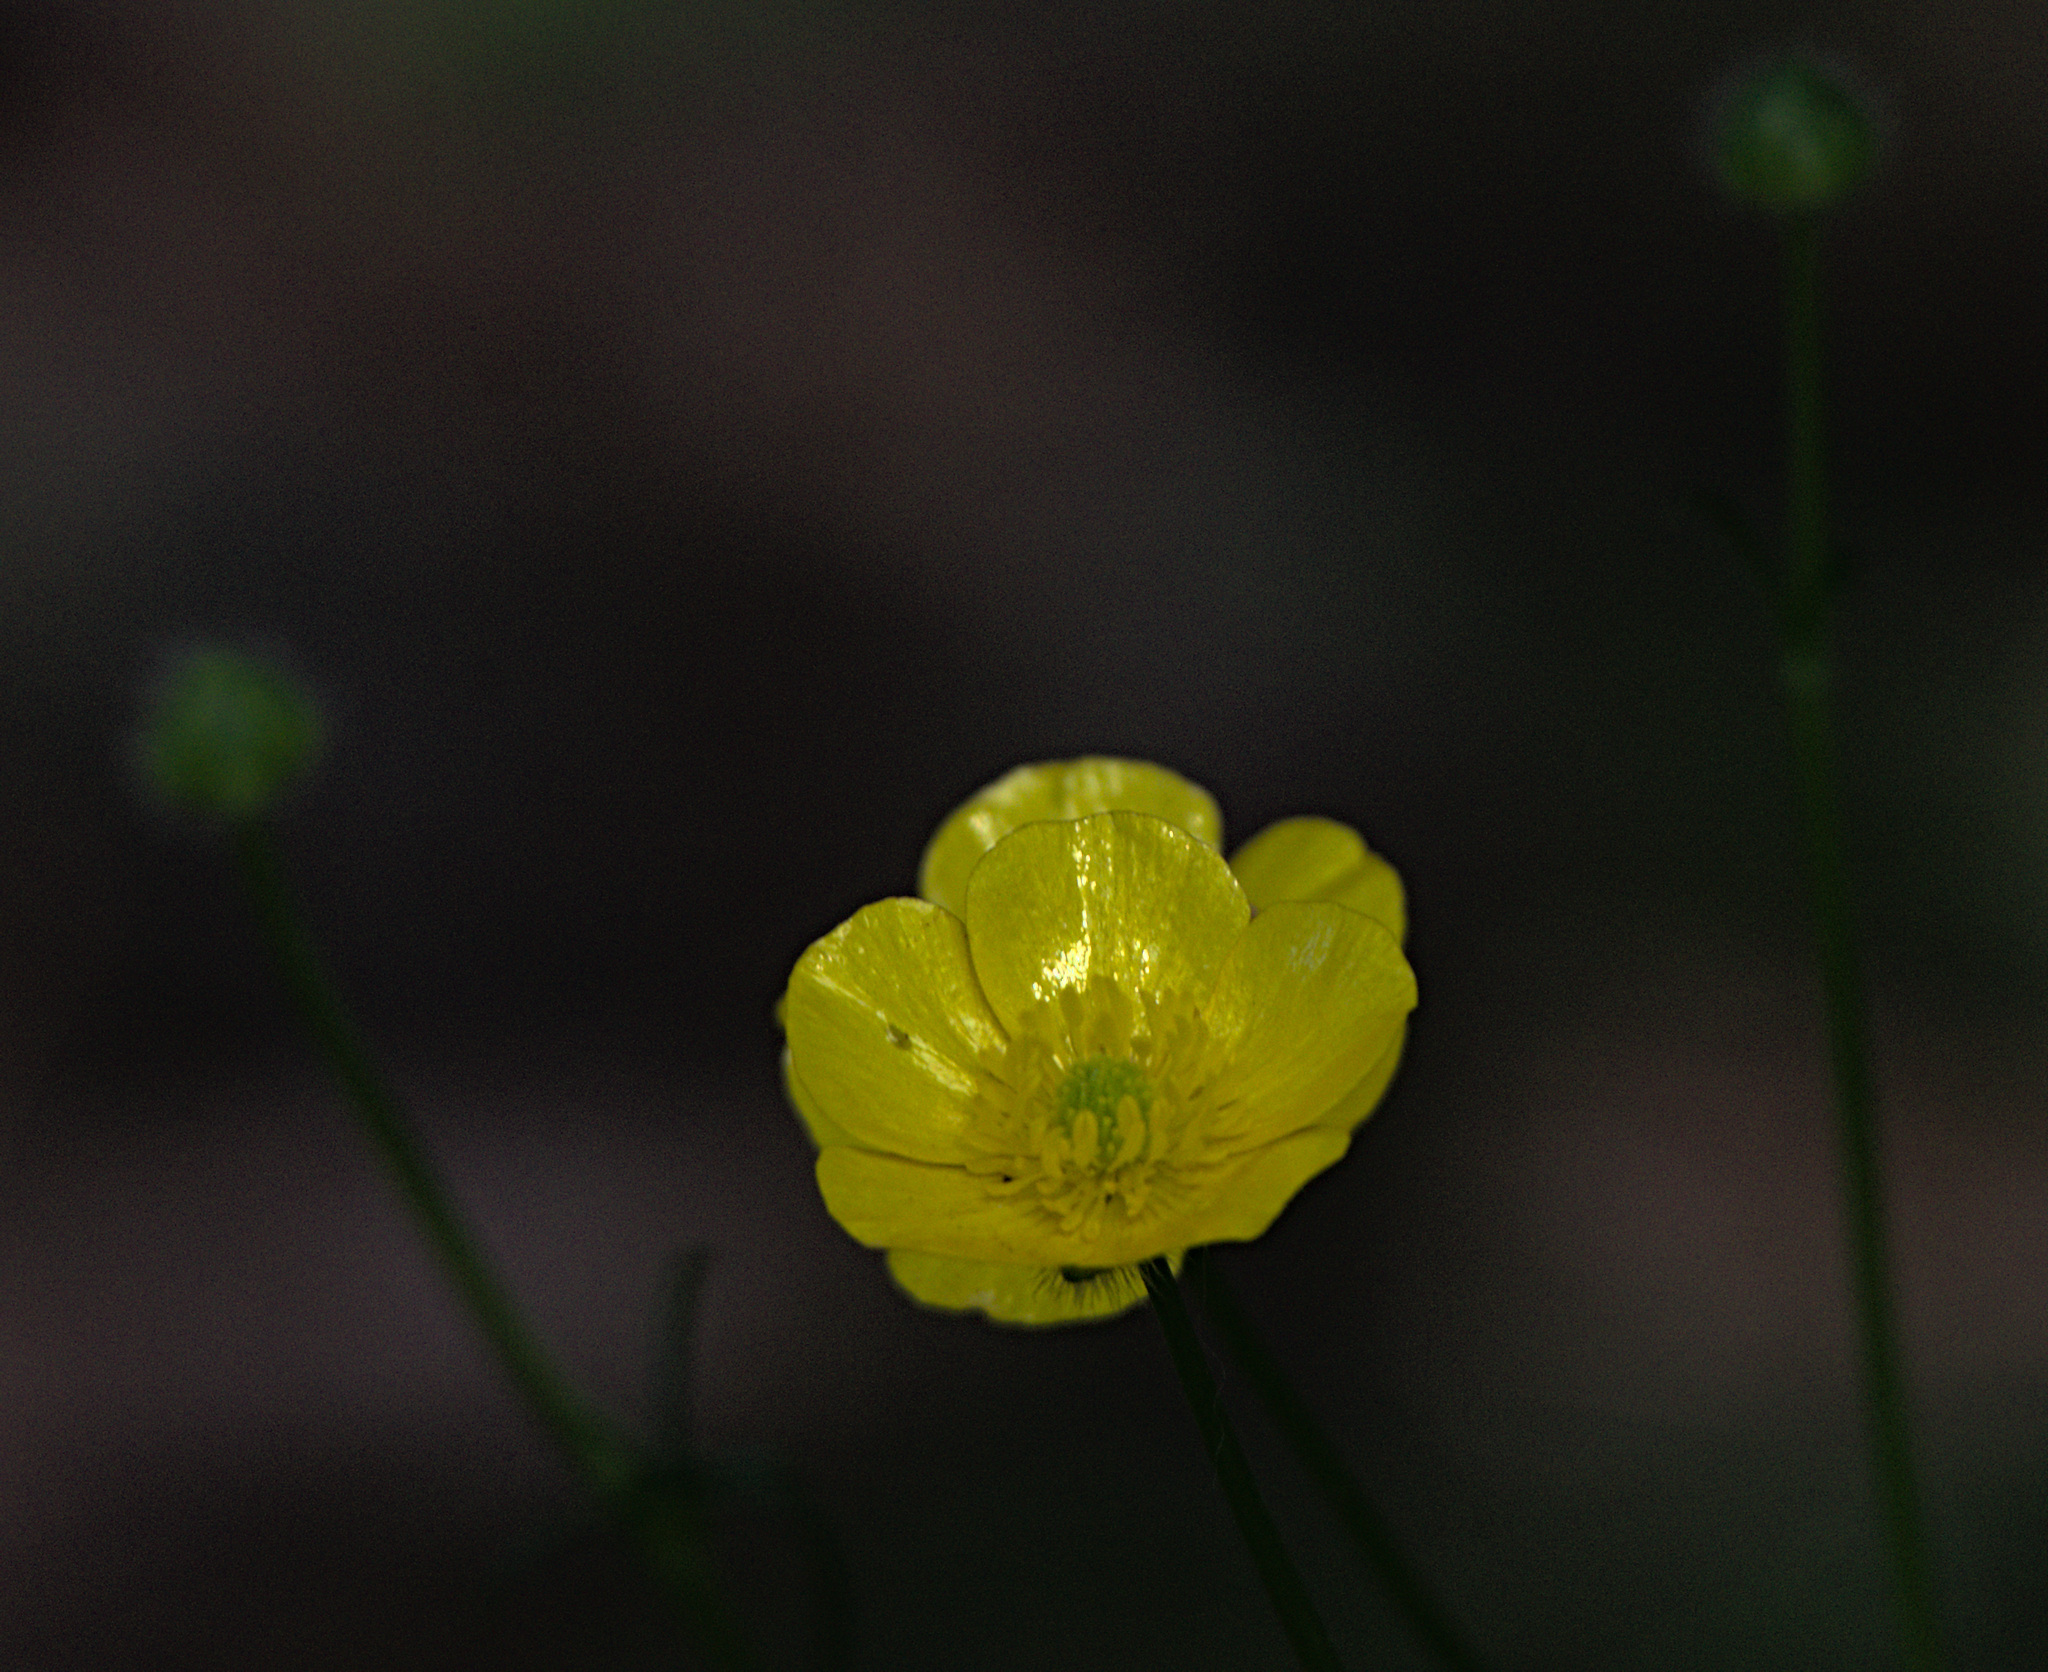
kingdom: Plantae
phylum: Tracheophyta
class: Magnoliopsida
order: Ranunculales
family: Ranunculaceae
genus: Ranunculus
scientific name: Ranunculus polyanthemos
